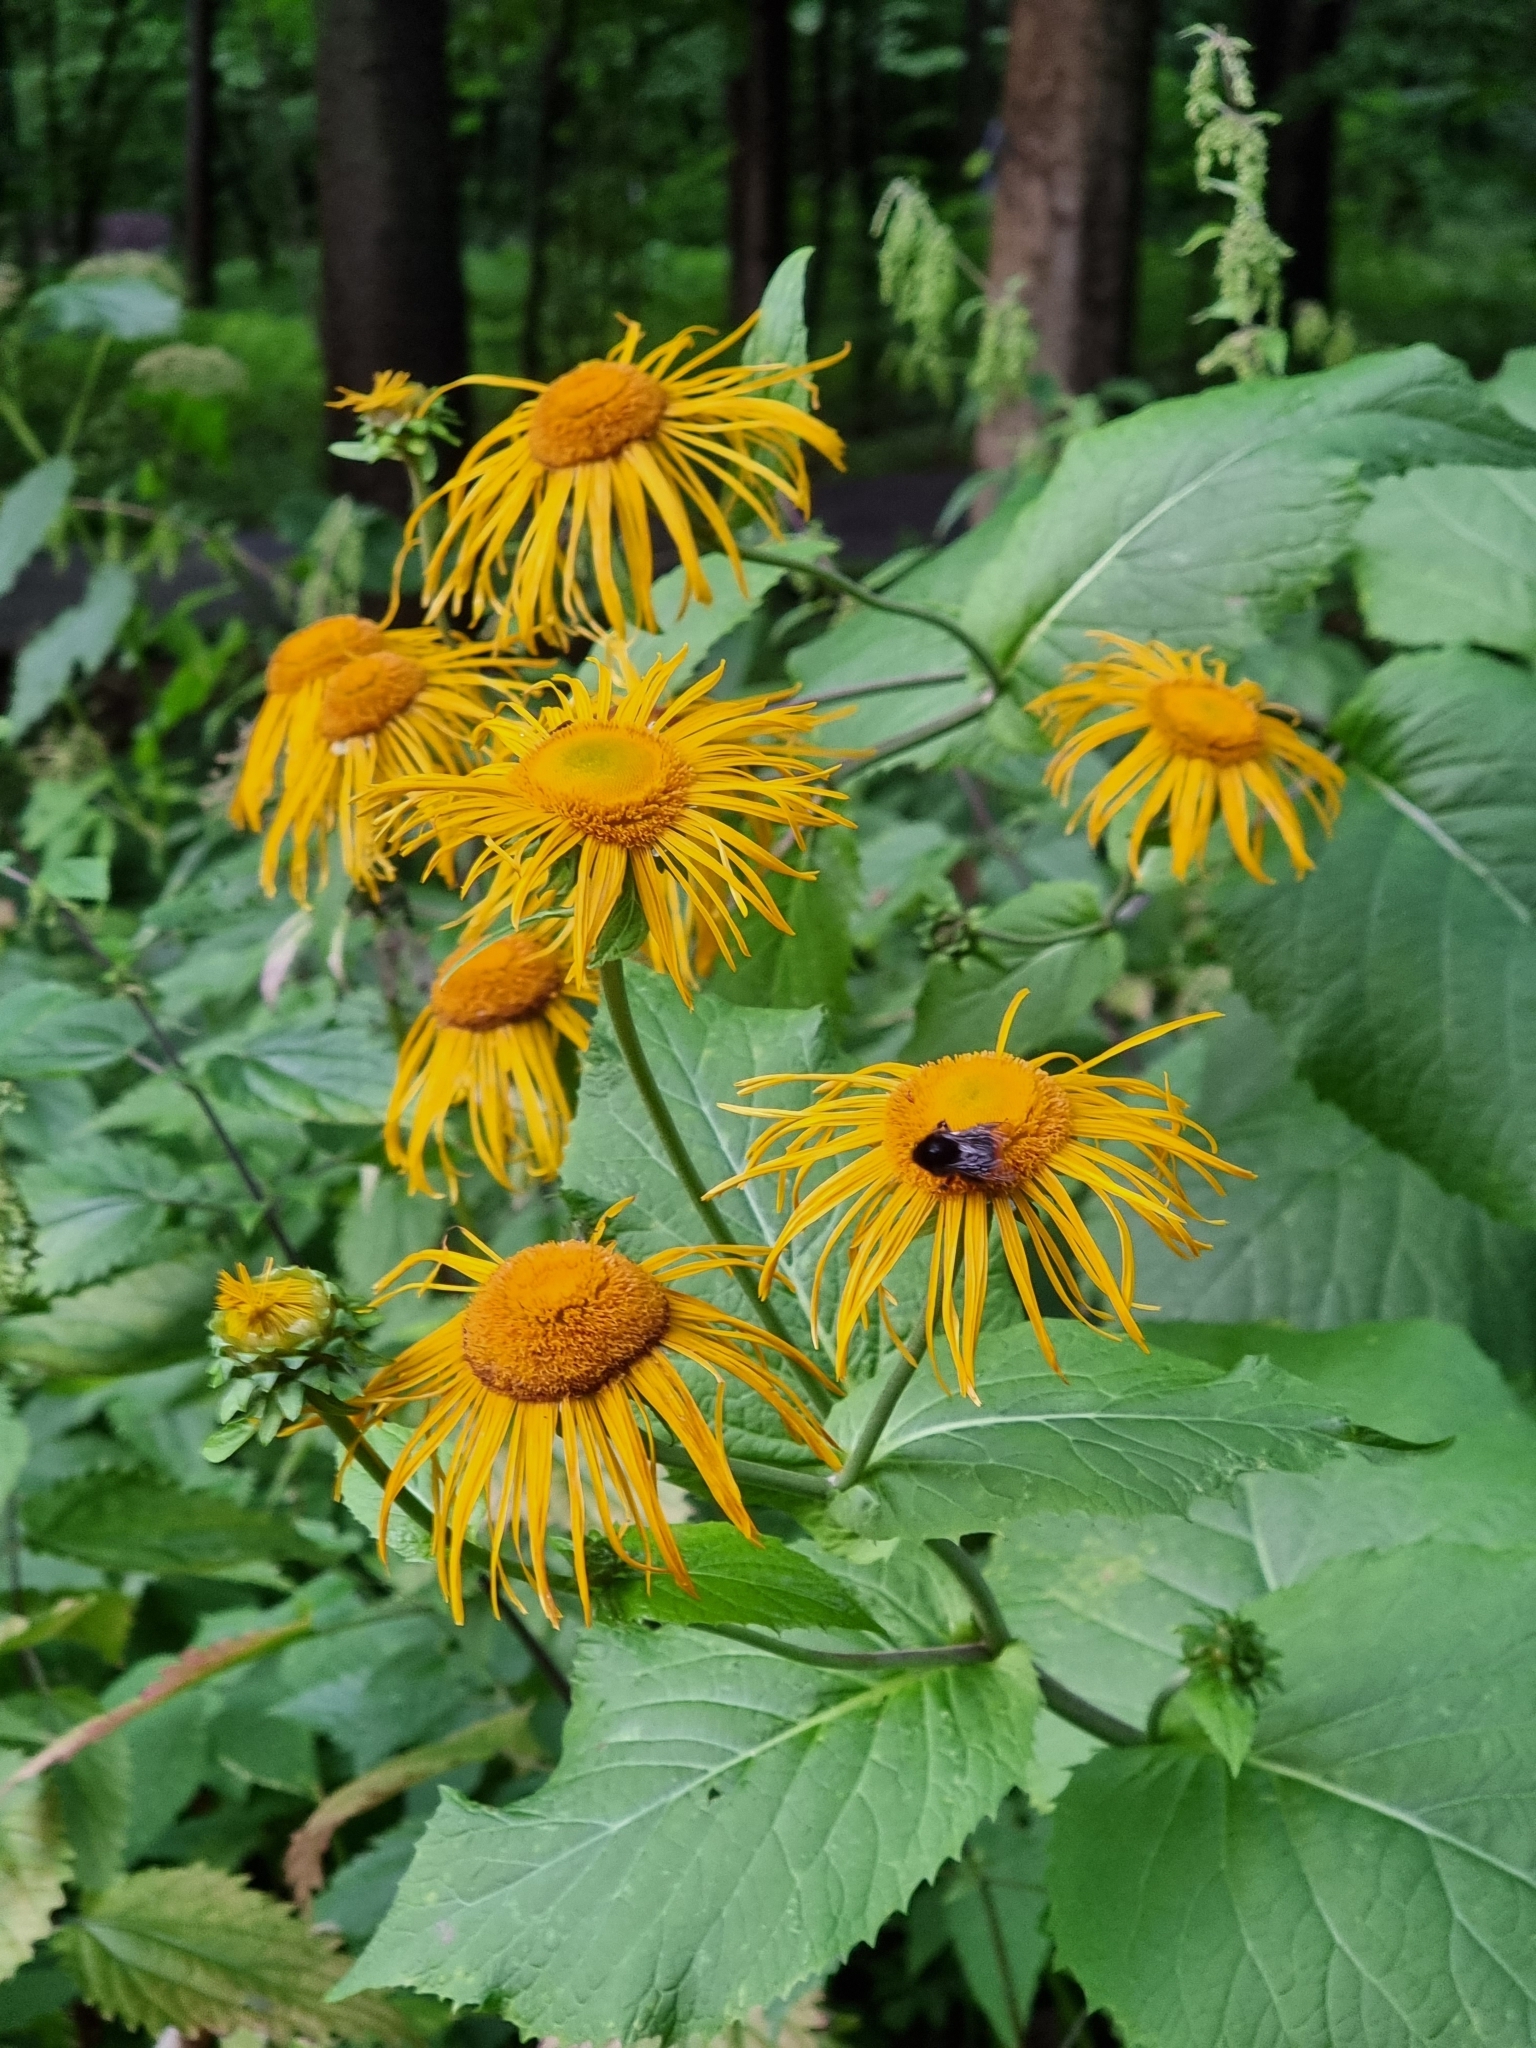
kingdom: Plantae
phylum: Tracheophyta
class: Magnoliopsida
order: Asterales
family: Asteraceae
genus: Telekia
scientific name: Telekia speciosa
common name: Yellow oxeye
